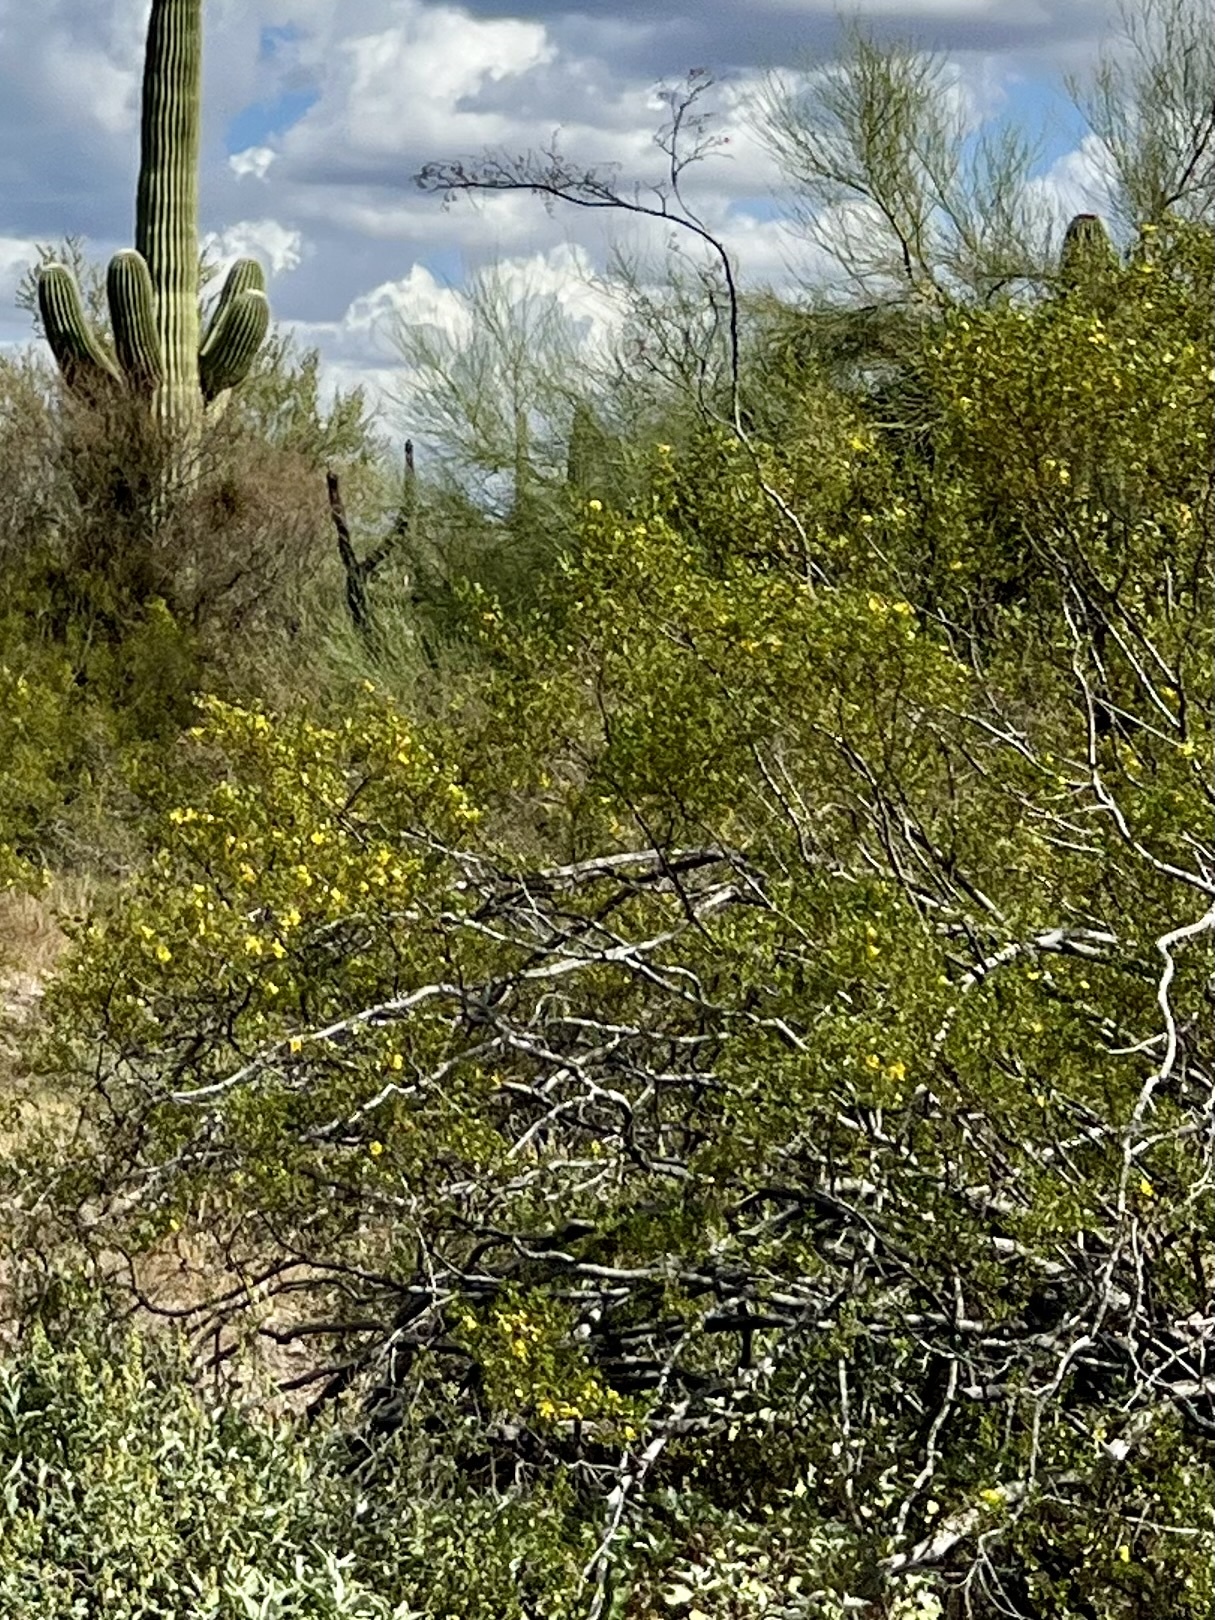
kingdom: Plantae
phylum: Tracheophyta
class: Magnoliopsida
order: Zygophyllales
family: Zygophyllaceae
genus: Larrea
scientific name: Larrea tridentata
